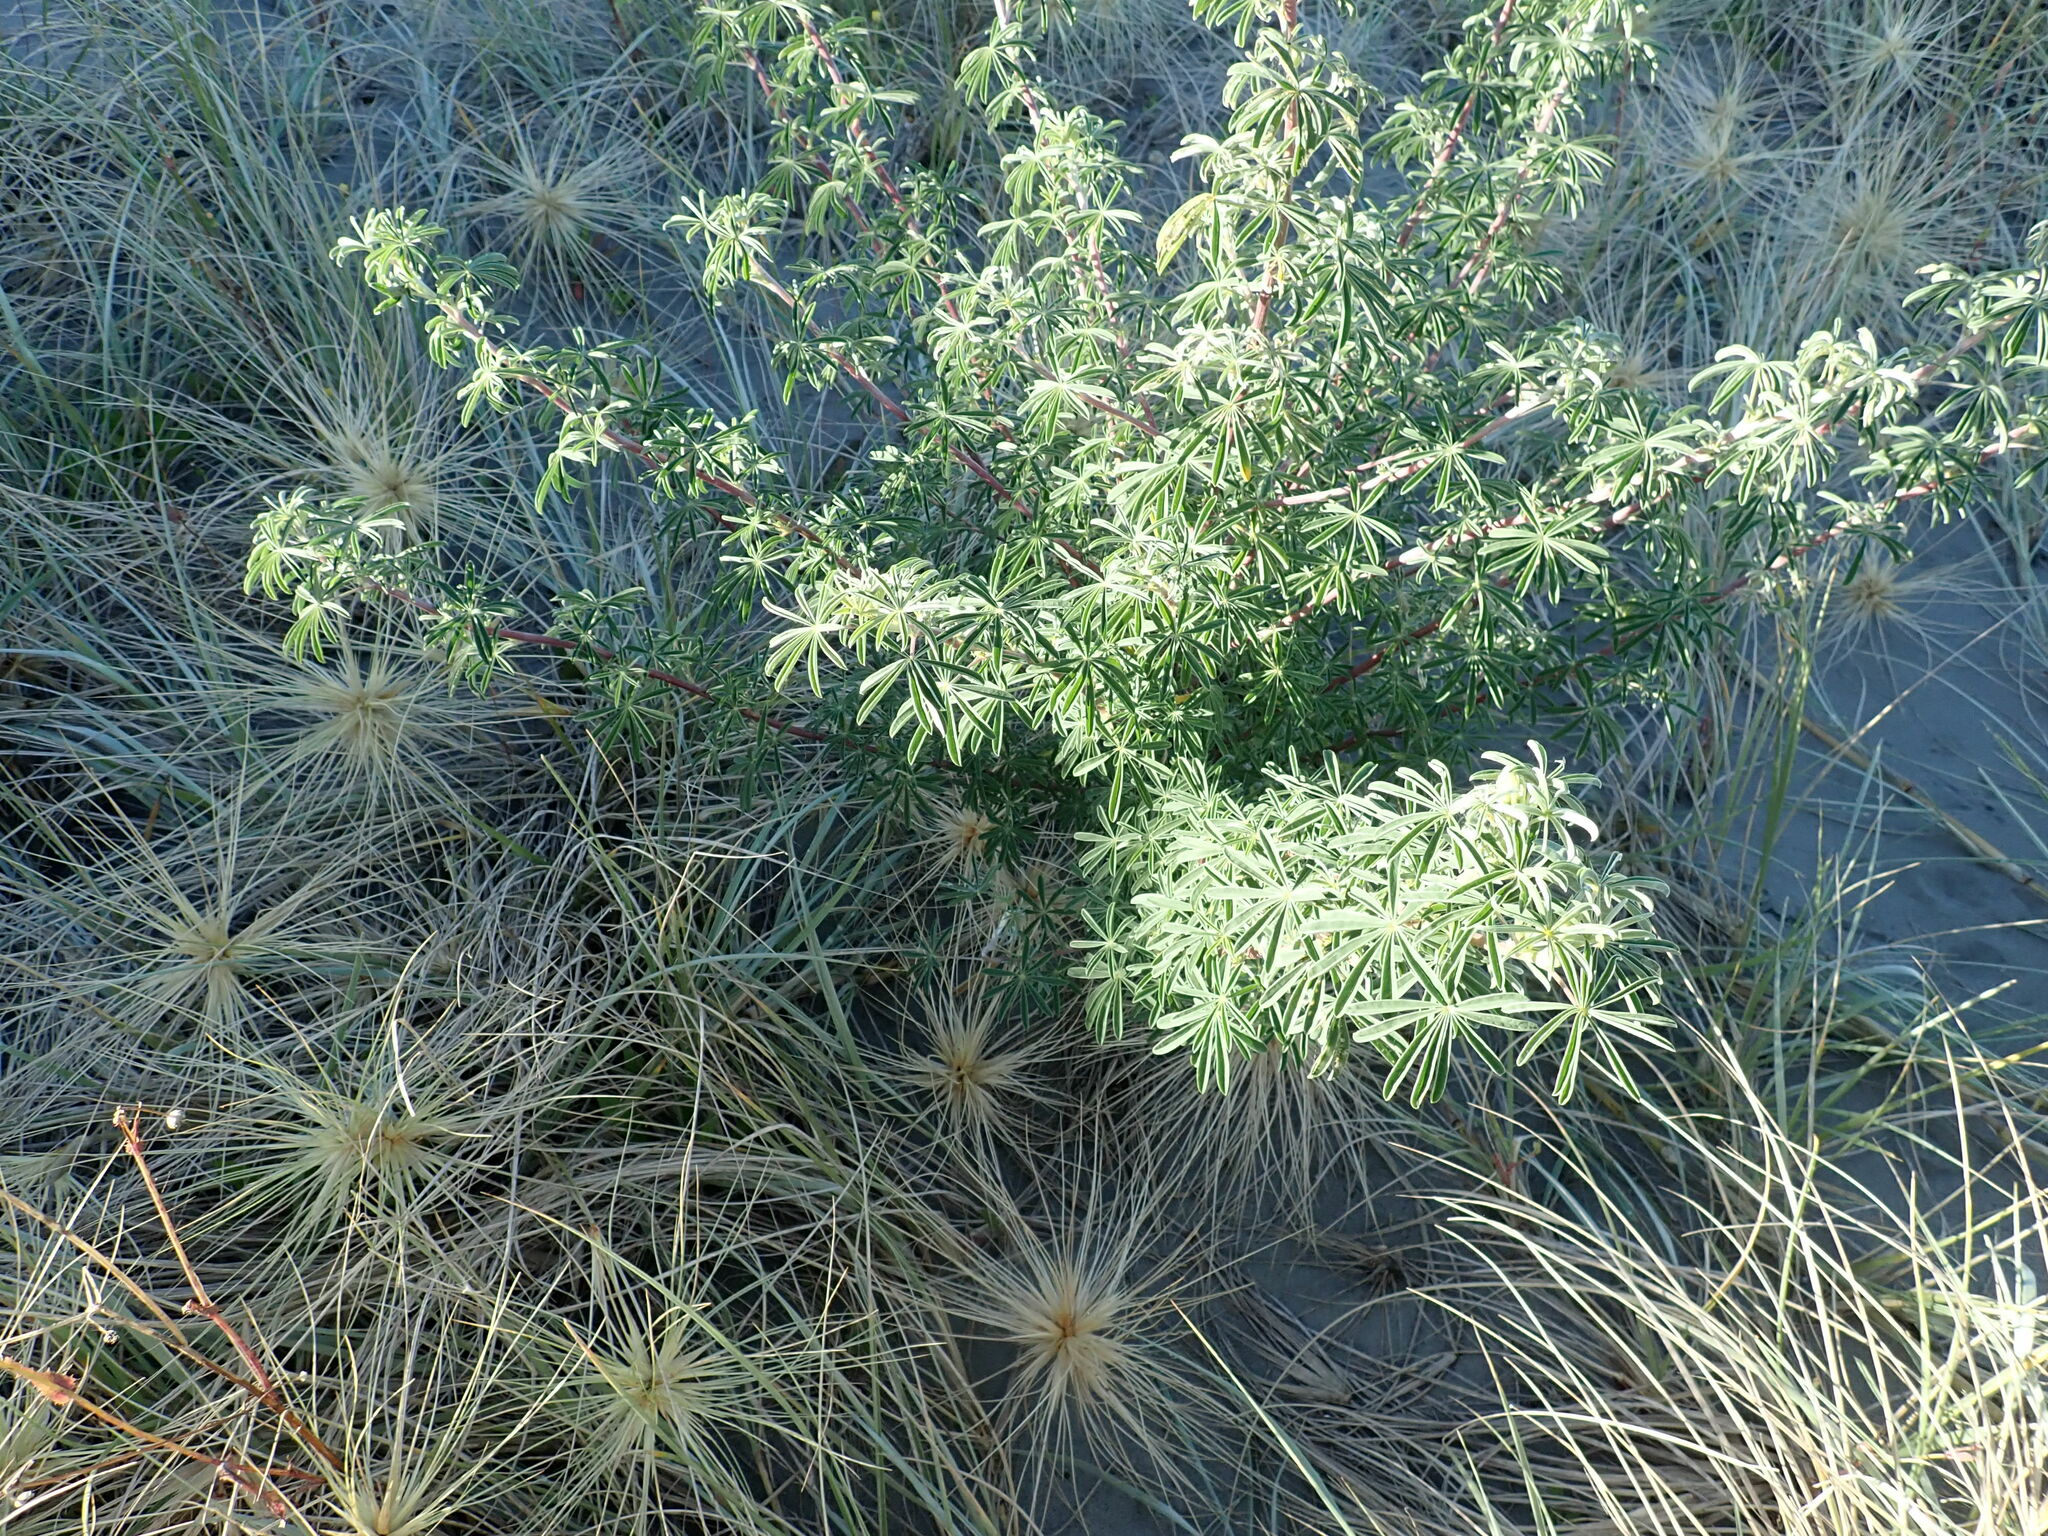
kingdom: Plantae
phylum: Tracheophyta
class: Magnoliopsida
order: Fabales
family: Fabaceae
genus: Lupinus
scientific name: Lupinus arboreus
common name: Yellow bush lupine
